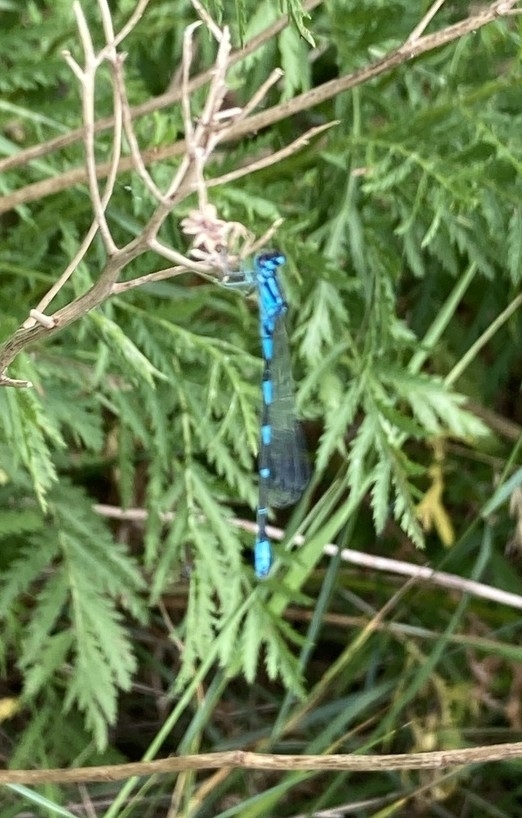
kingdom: Animalia
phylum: Arthropoda
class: Insecta
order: Odonata
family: Coenagrionidae
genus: Coenagrion
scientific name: Coenagrion pulchellum
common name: Variable bluet
